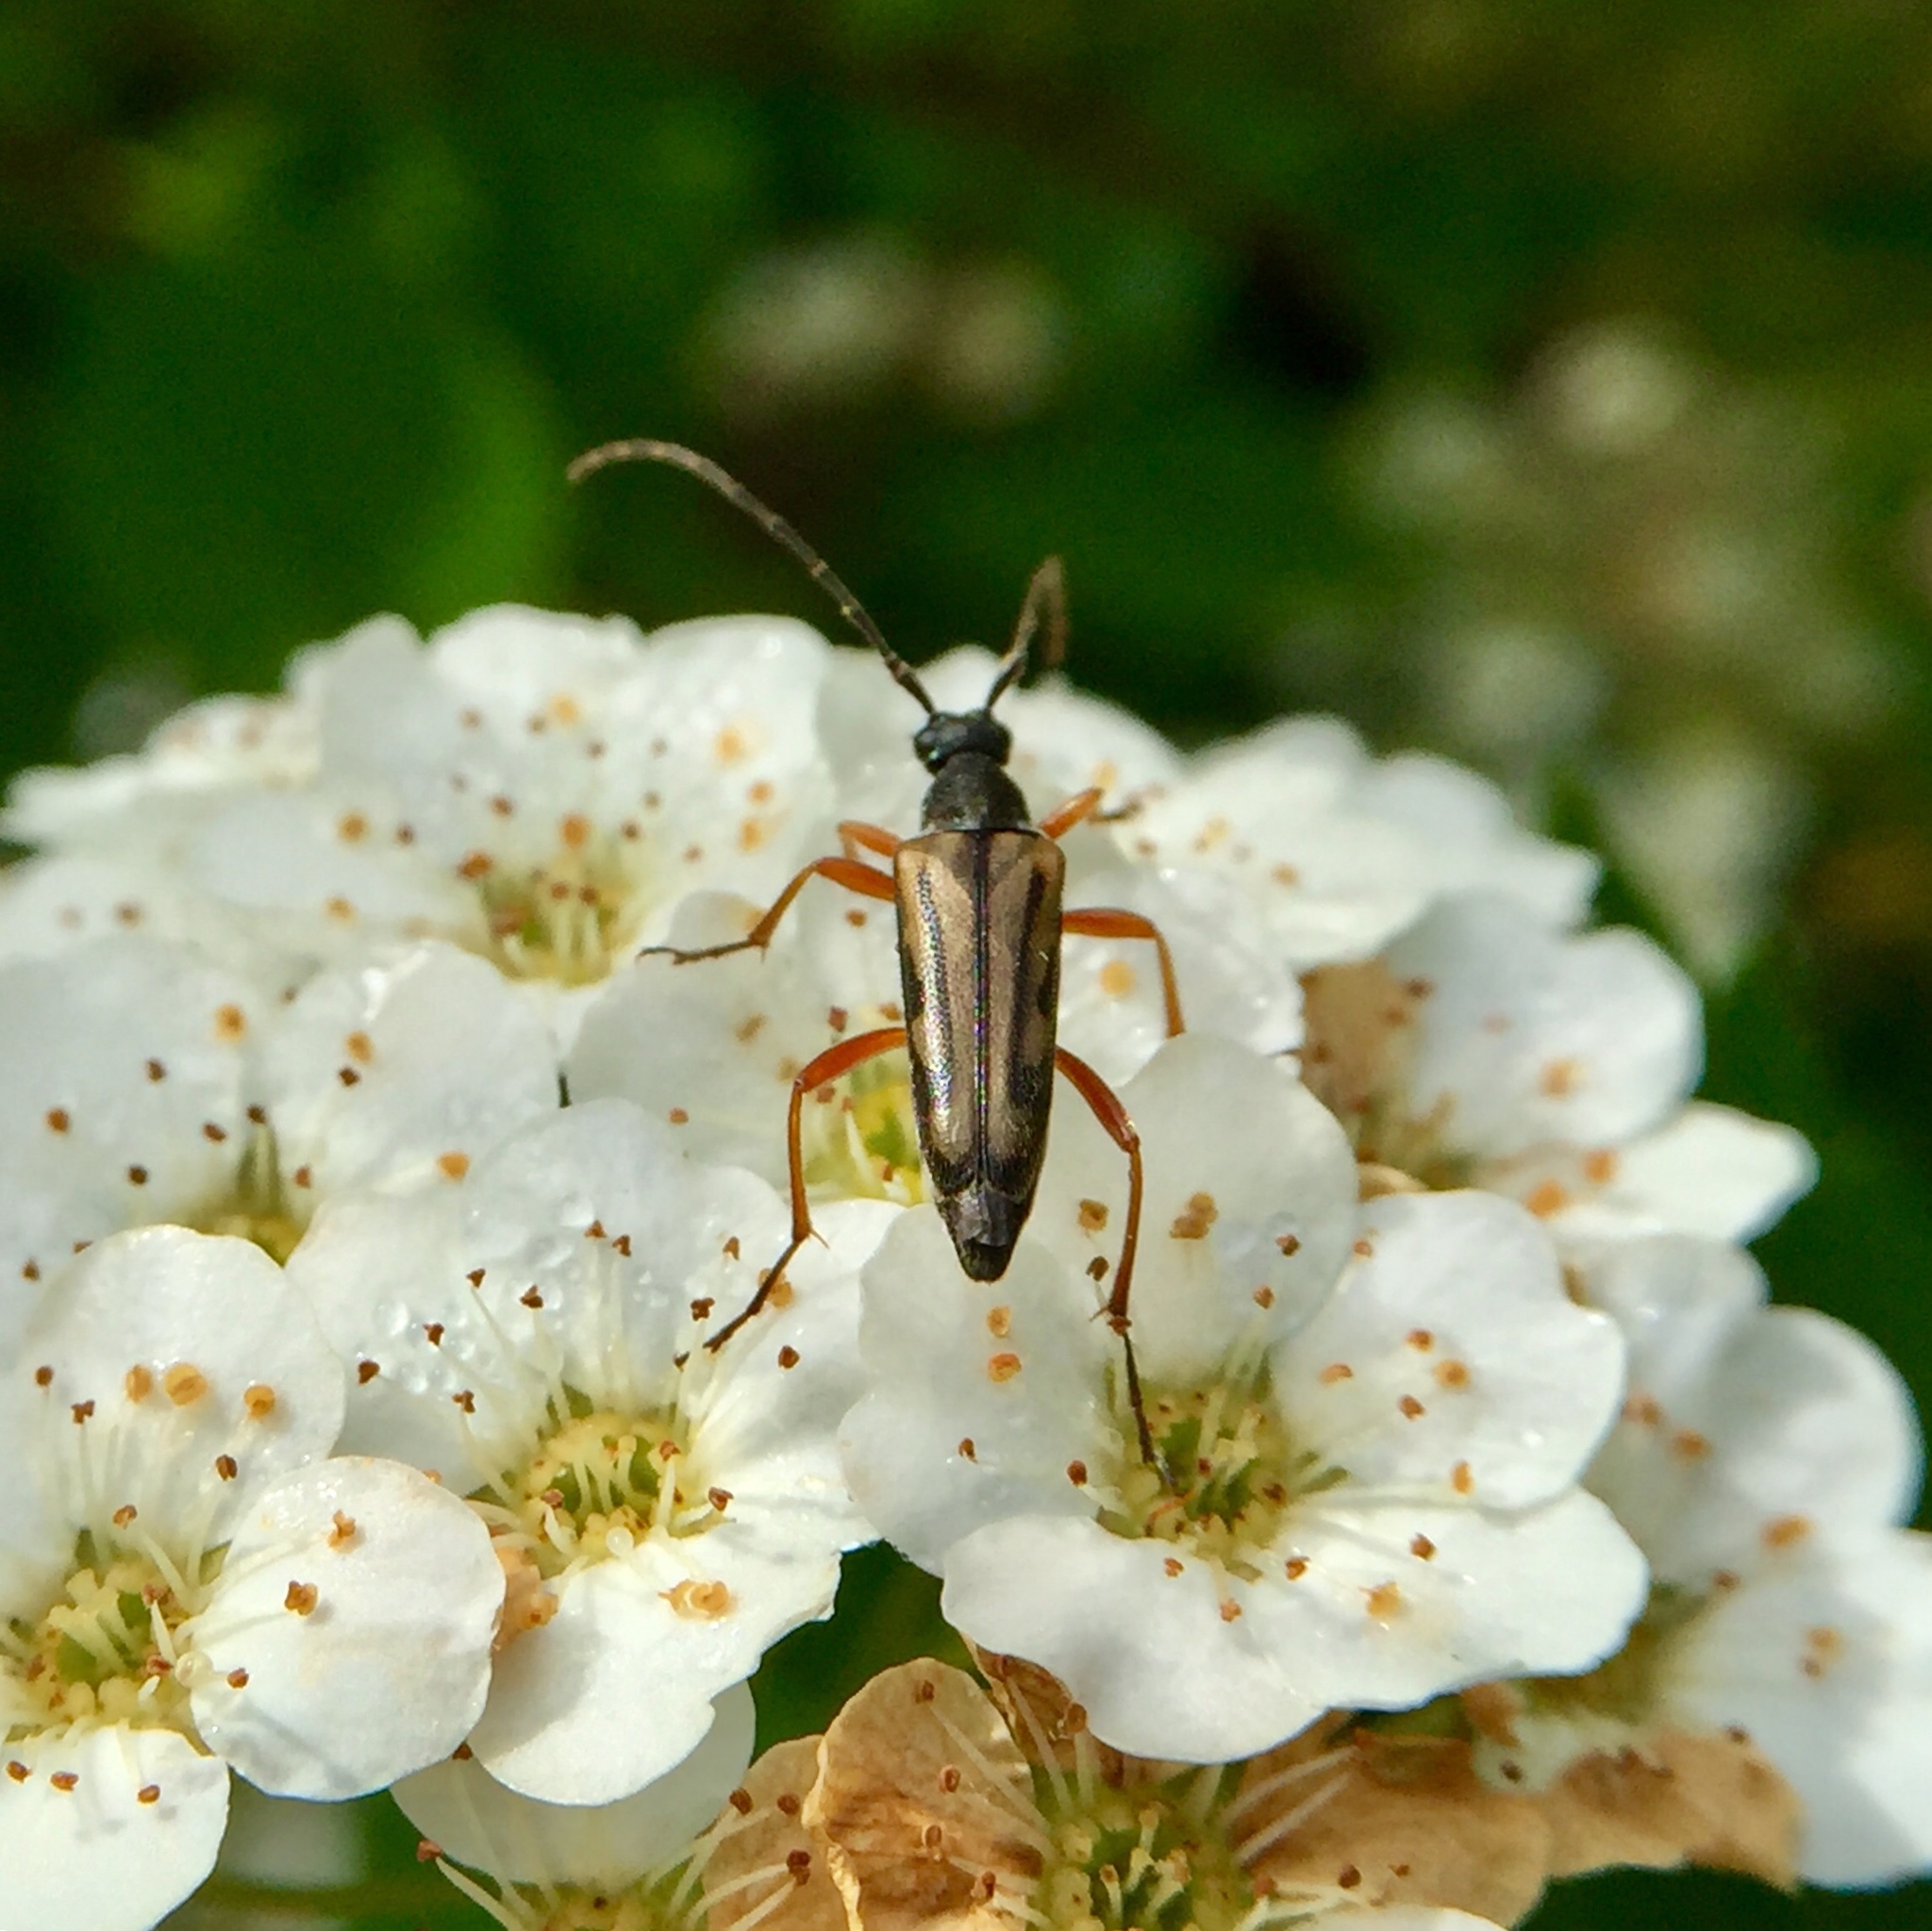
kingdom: Animalia
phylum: Arthropoda
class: Insecta
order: Coleoptera
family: Cerambycidae
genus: Analeptura
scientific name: Analeptura lineola
